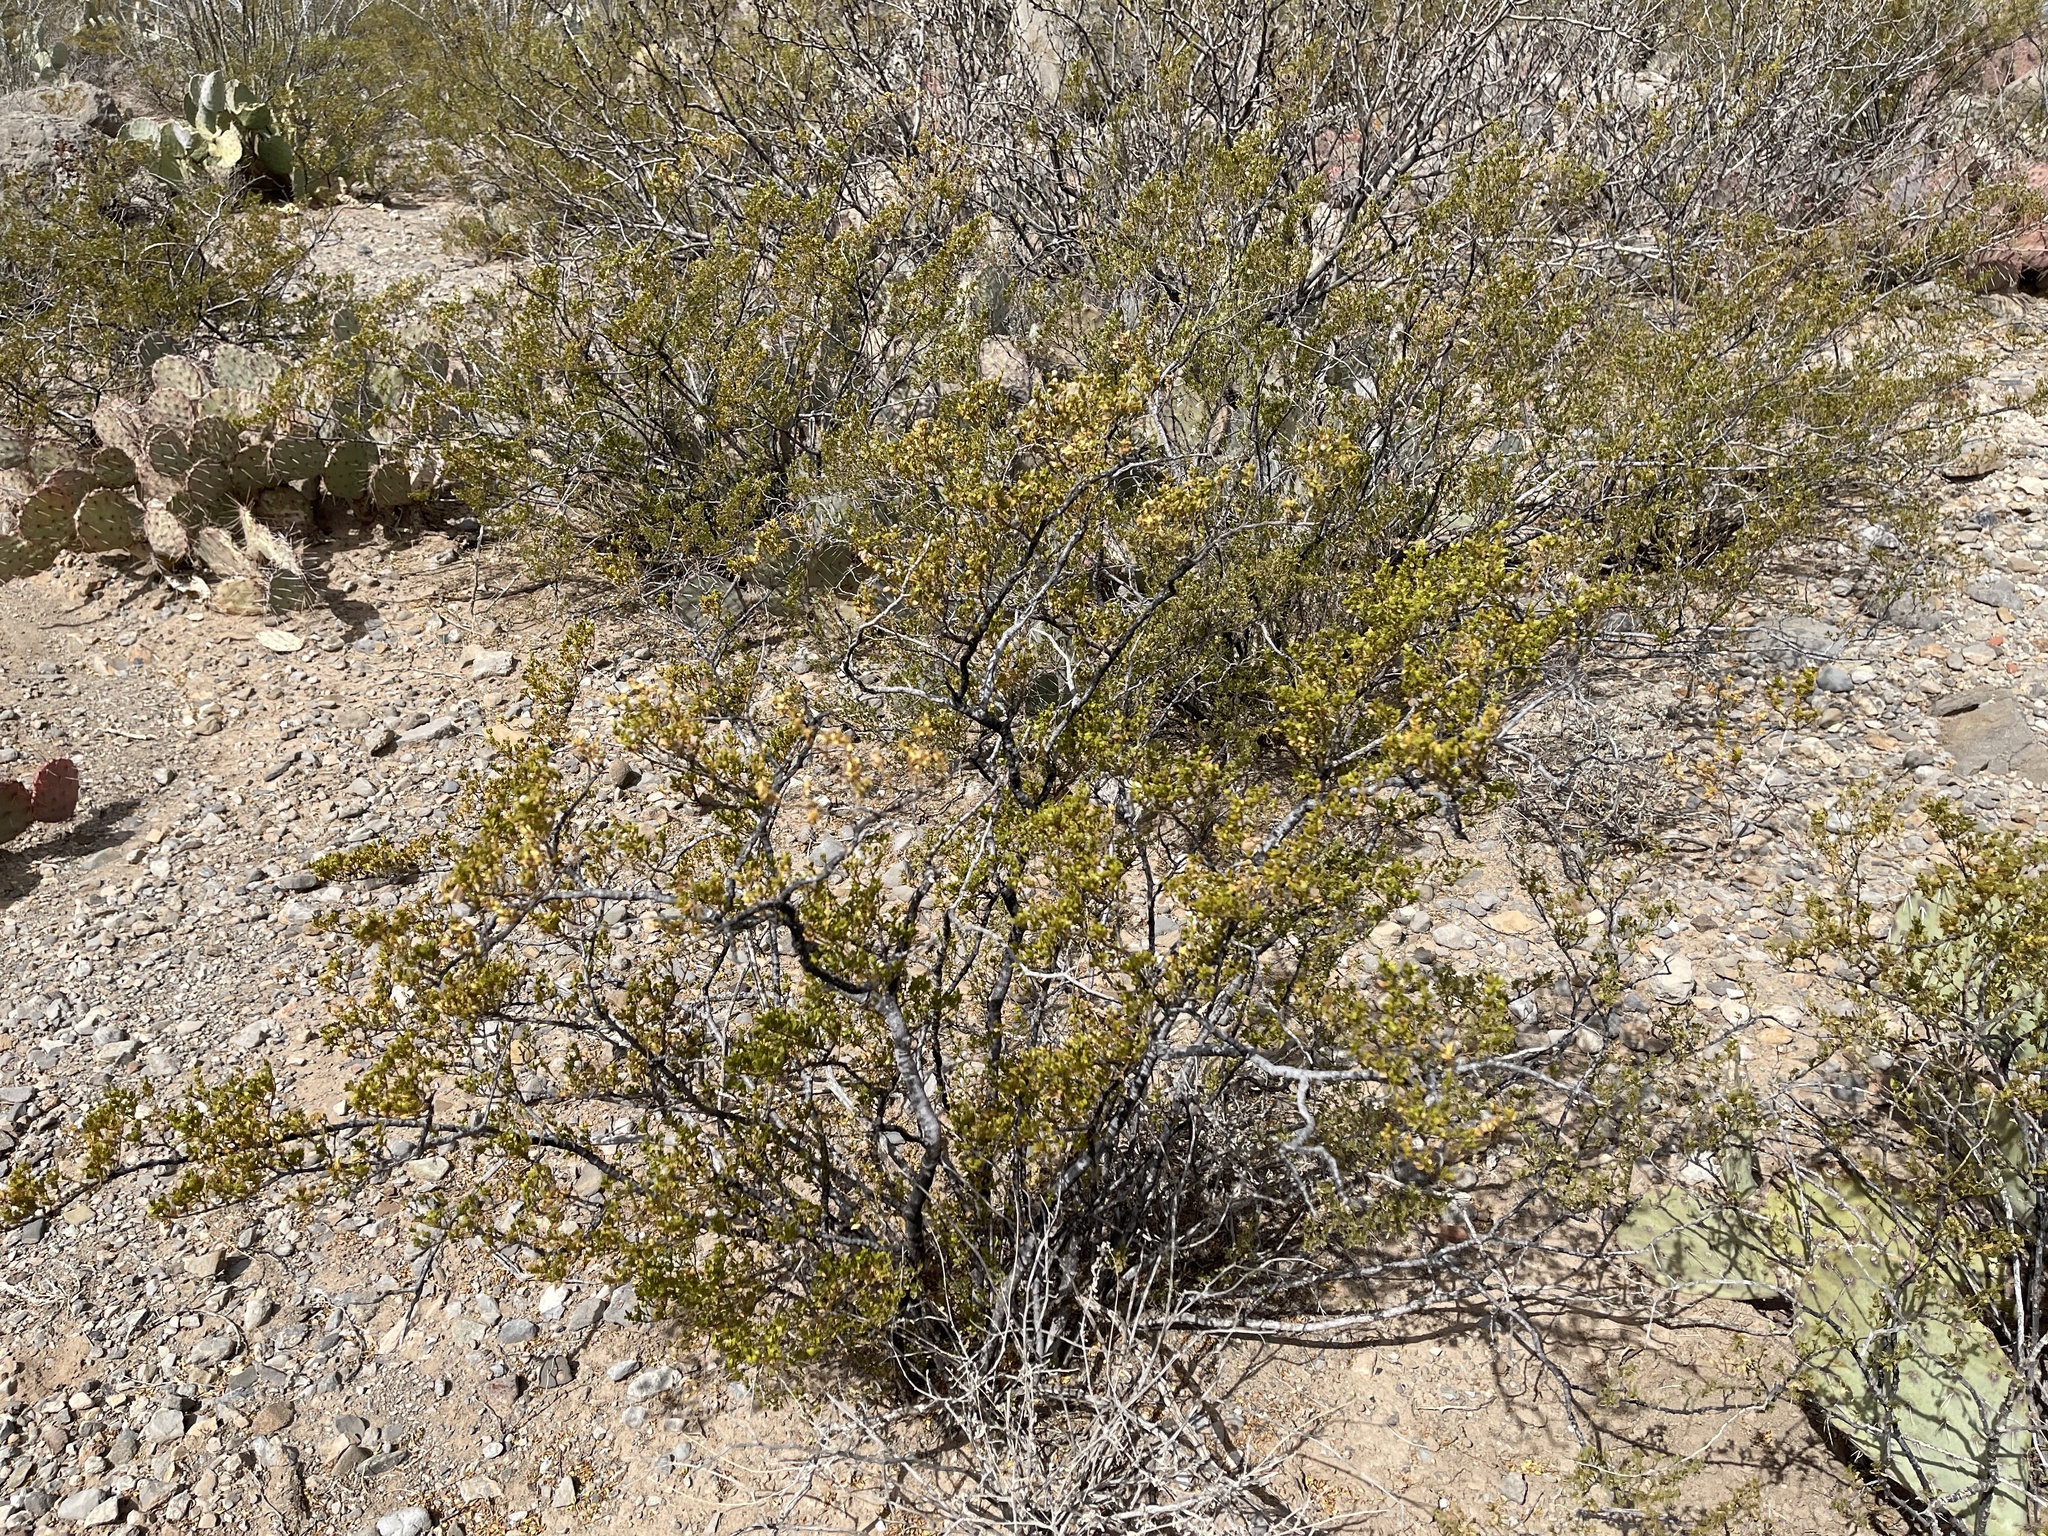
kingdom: Plantae
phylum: Tracheophyta
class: Magnoliopsida
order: Zygophyllales
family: Zygophyllaceae
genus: Larrea
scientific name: Larrea tridentata
